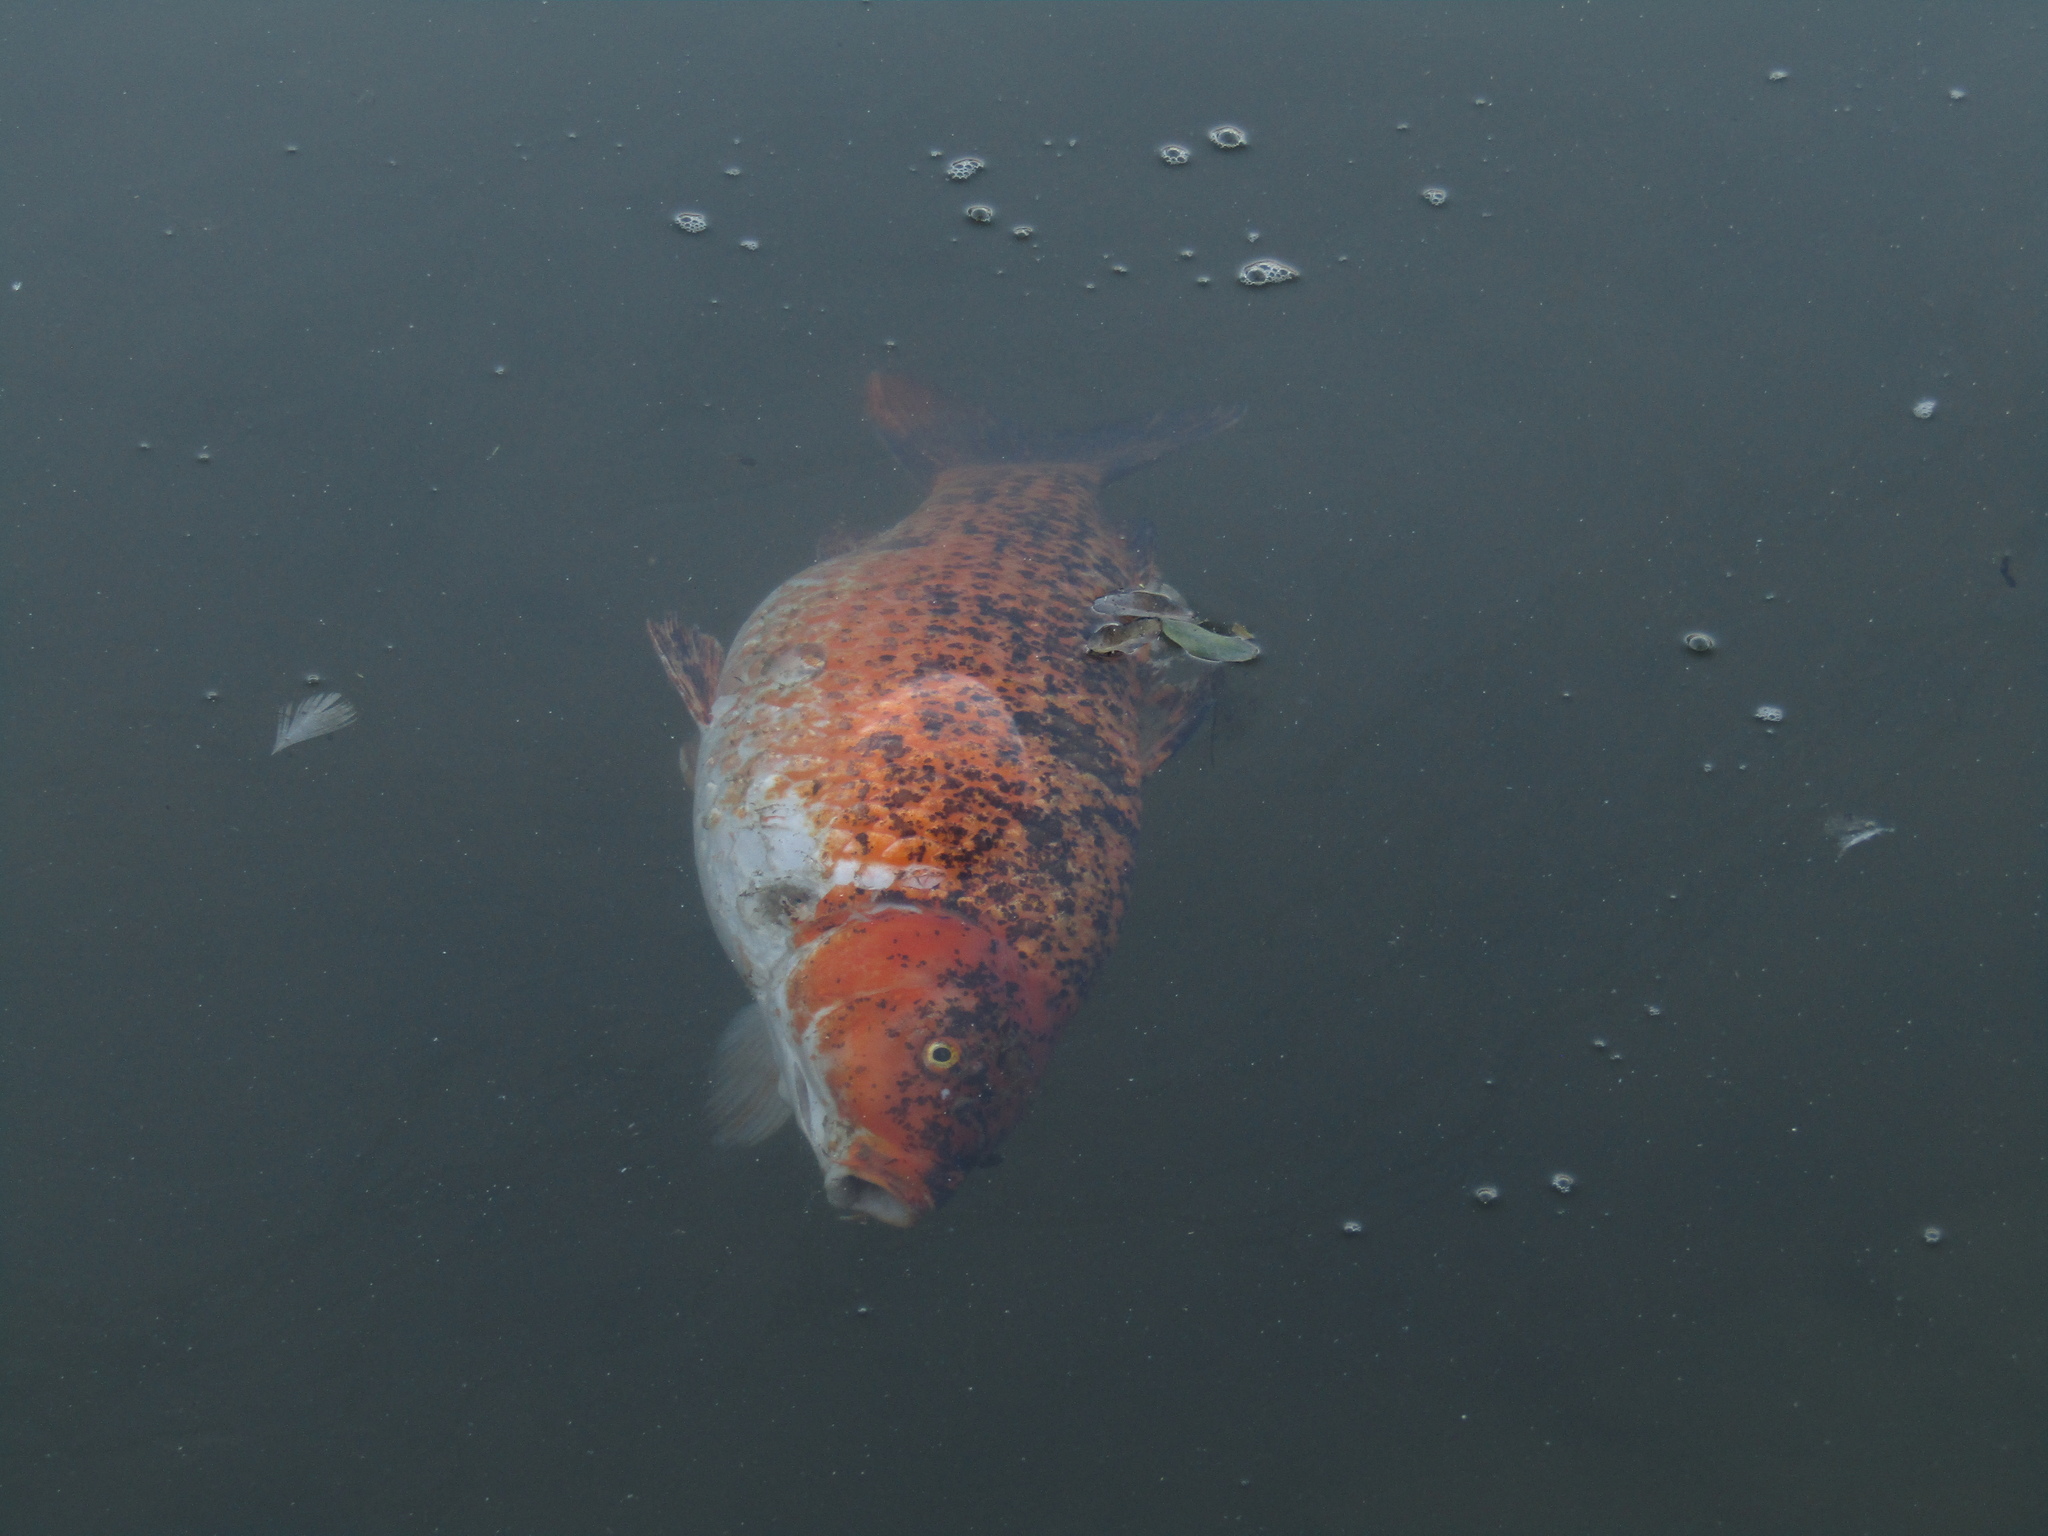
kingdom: Animalia
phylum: Chordata
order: Cypriniformes
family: Cyprinidae
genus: Cyprinus
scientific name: Cyprinus rubrofuscus
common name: Koi
